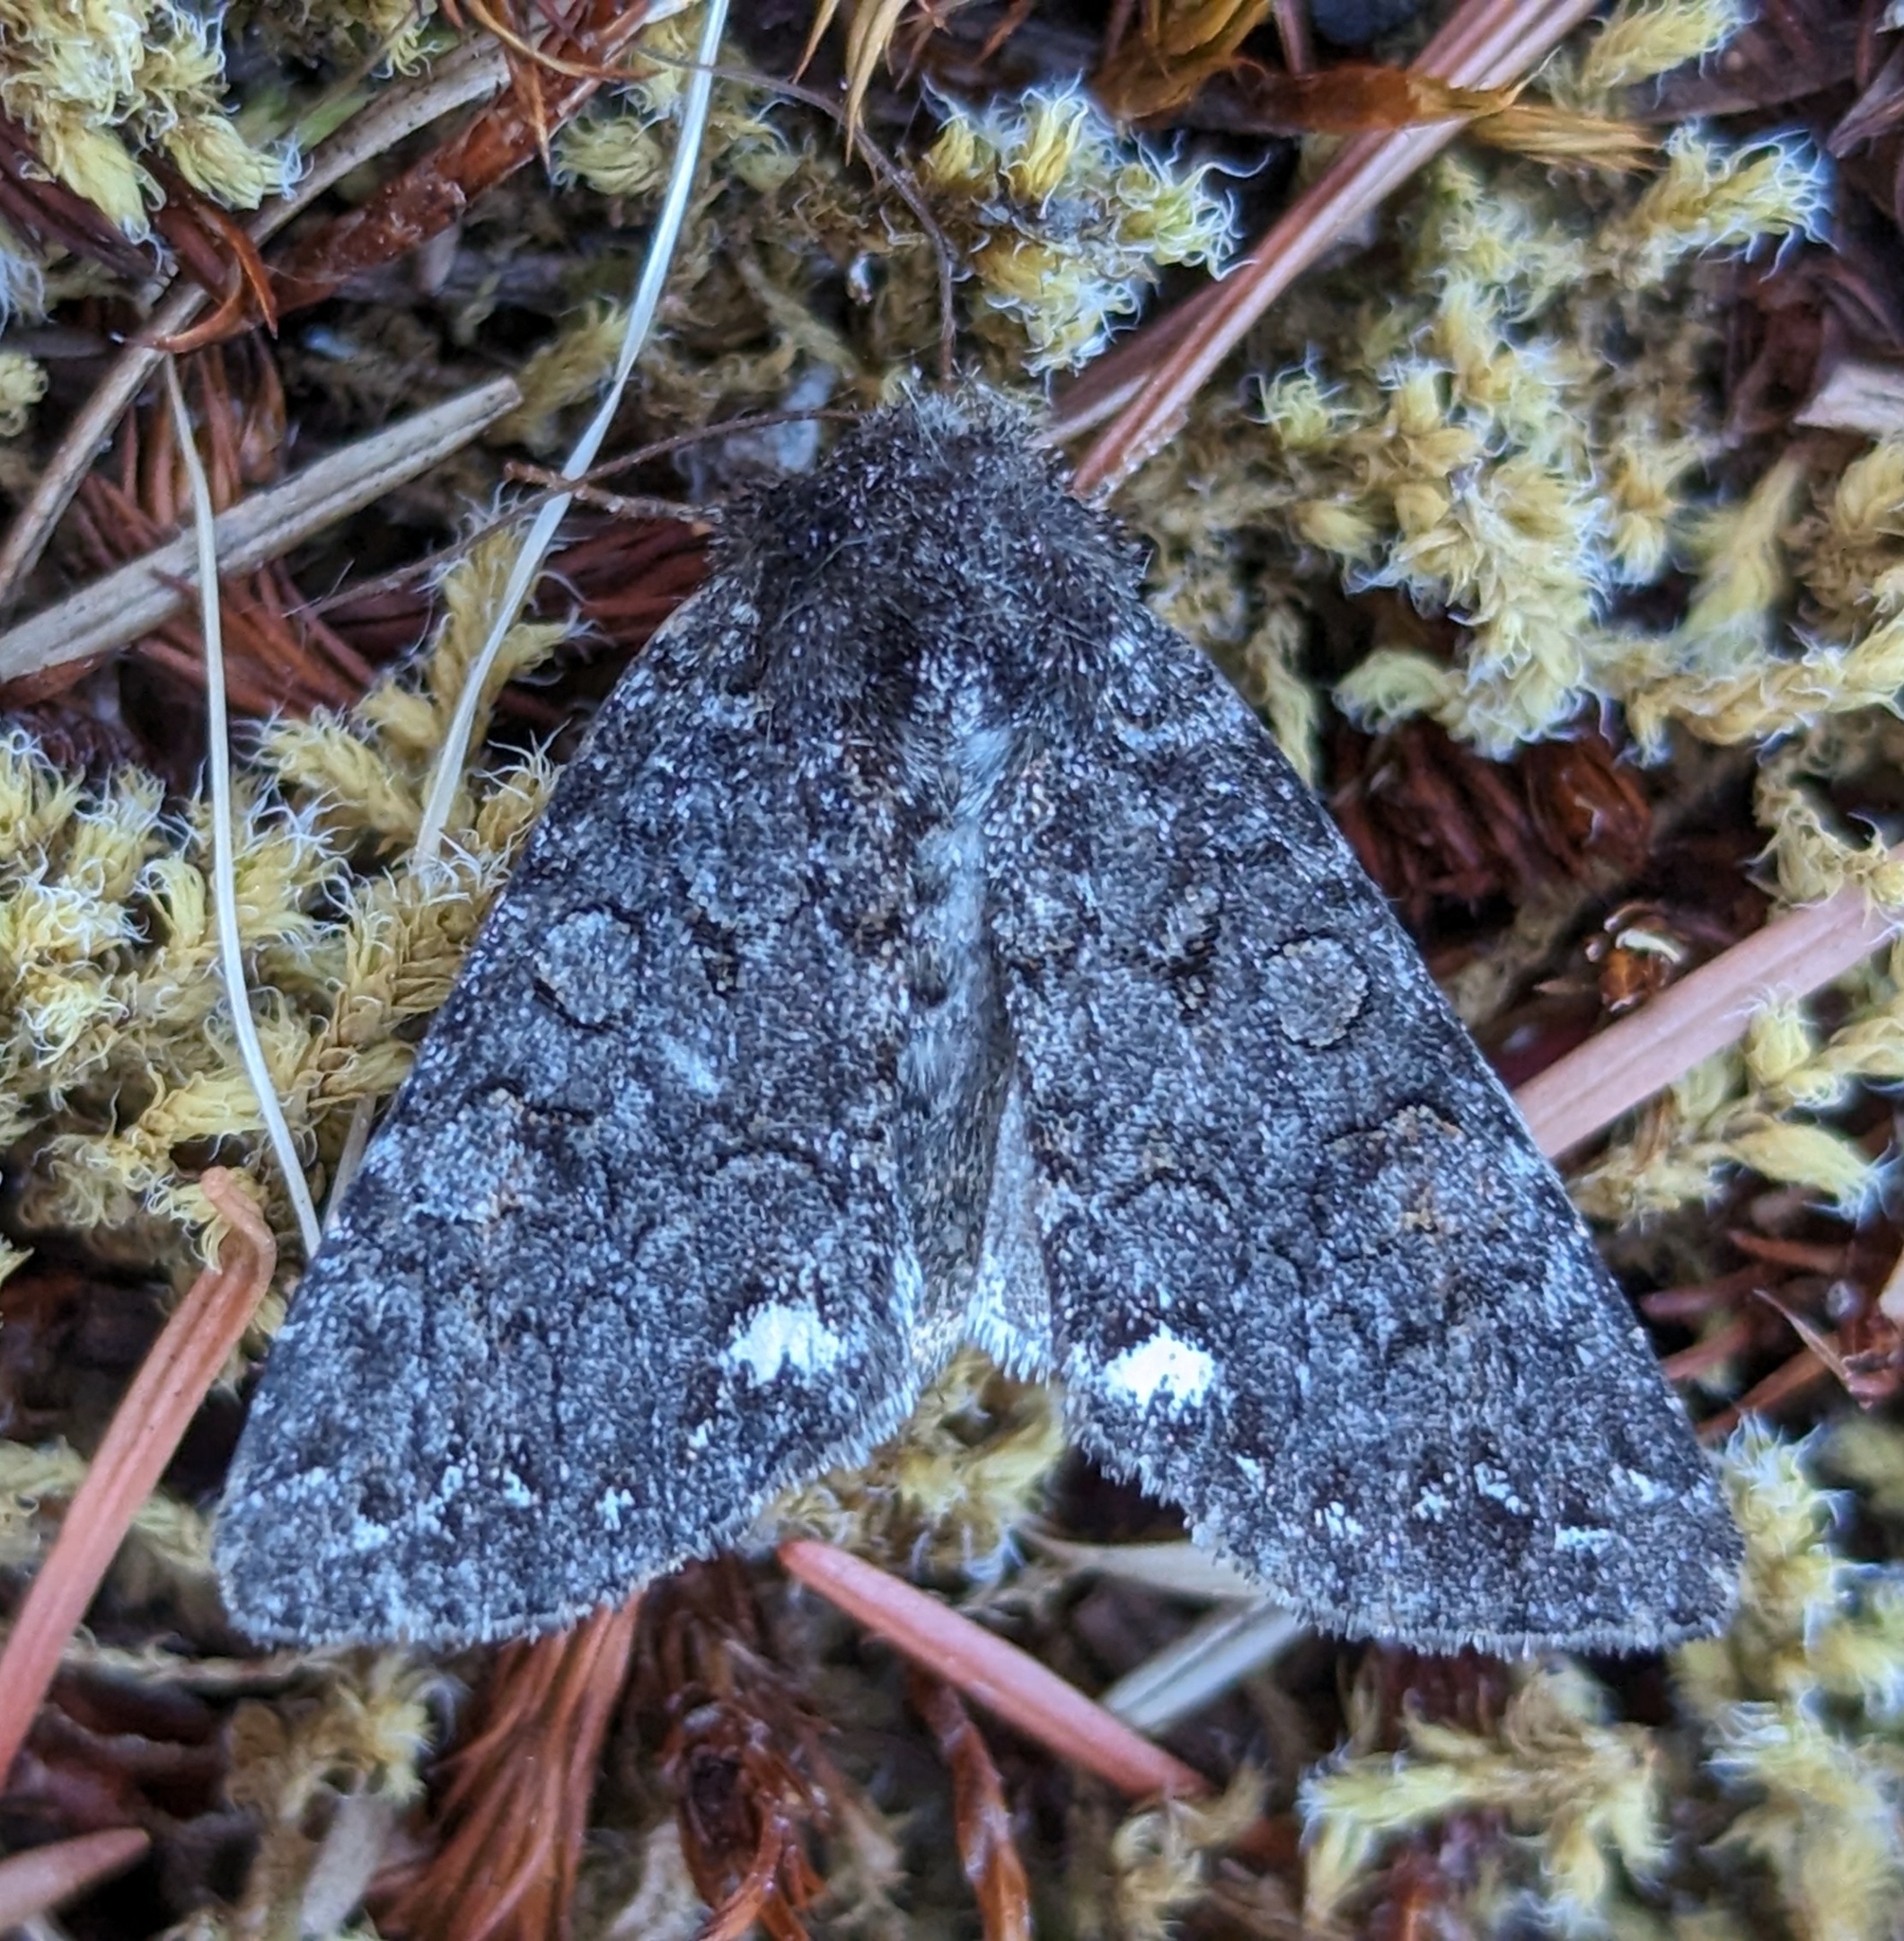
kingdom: Animalia
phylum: Arthropoda
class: Insecta
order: Lepidoptera
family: Noctuidae
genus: Melanchra
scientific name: Melanchra pulverulenta
